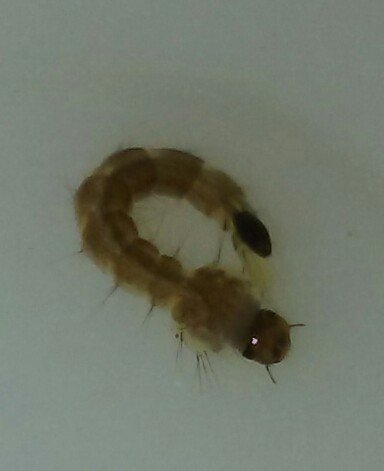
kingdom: Animalia
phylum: Arthropoda
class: Insecta
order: Diptera
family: Culicidae
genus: Aedes
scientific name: Aedes albopictus
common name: Tiger mosquito
